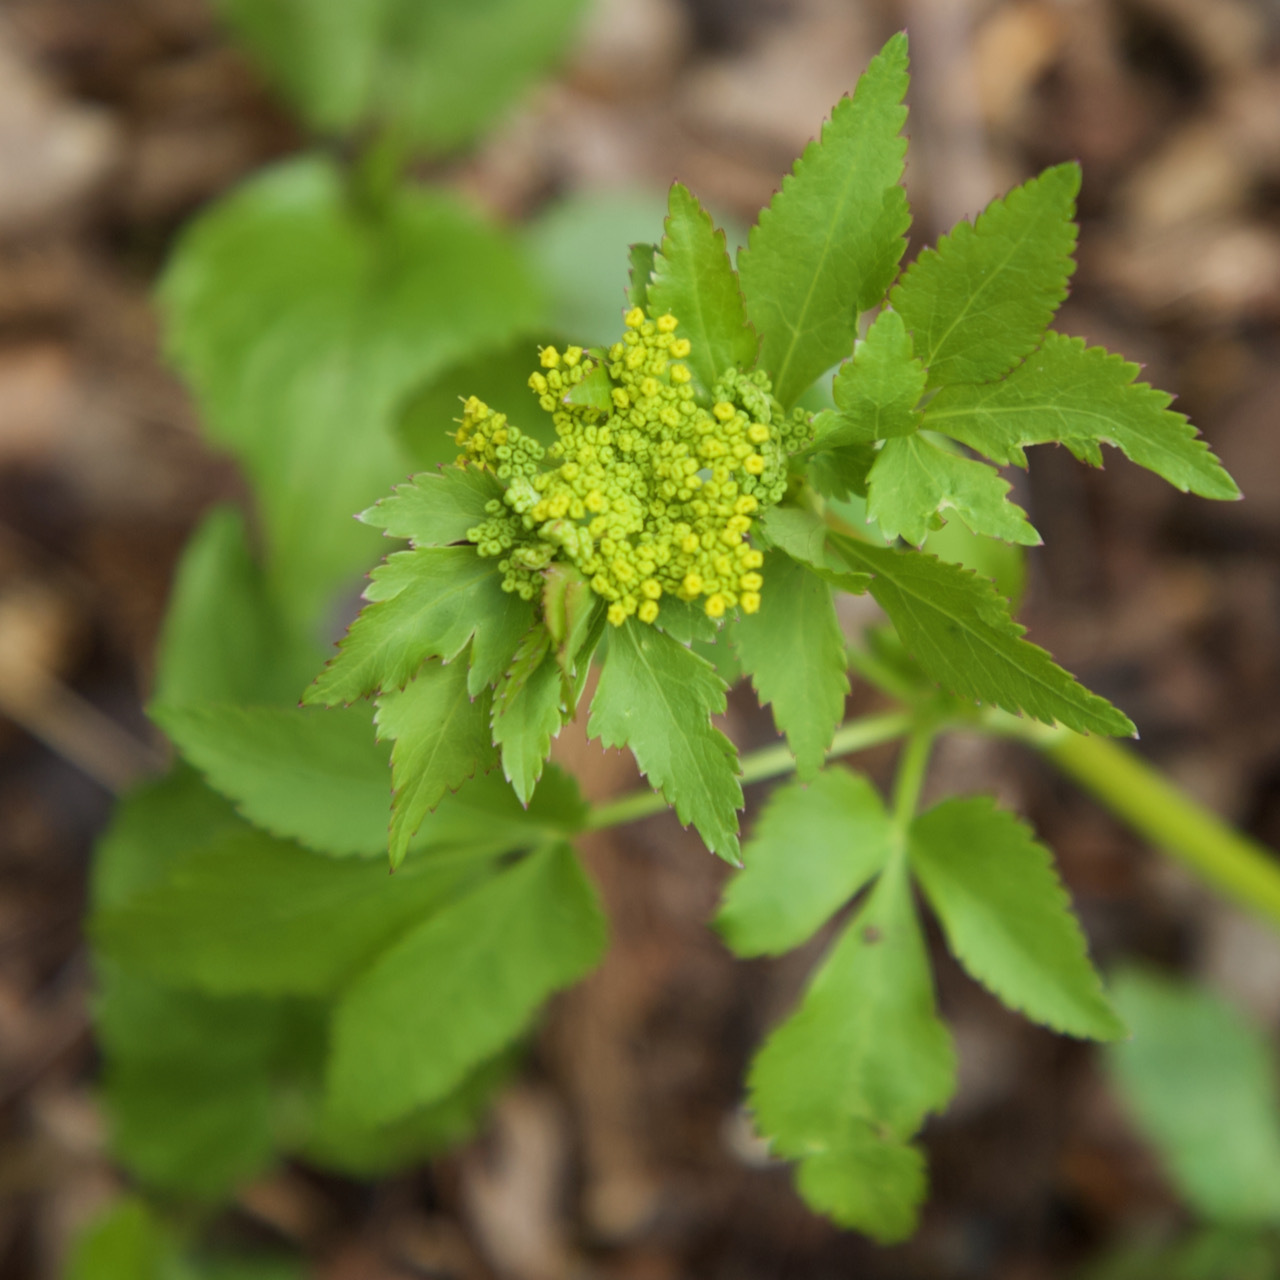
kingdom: Plantae
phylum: Tracheophyta
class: Magnoliopsida
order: Apiales
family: Apiaceae
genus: Zizia
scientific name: Zizia aurea
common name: Golden alexanders
